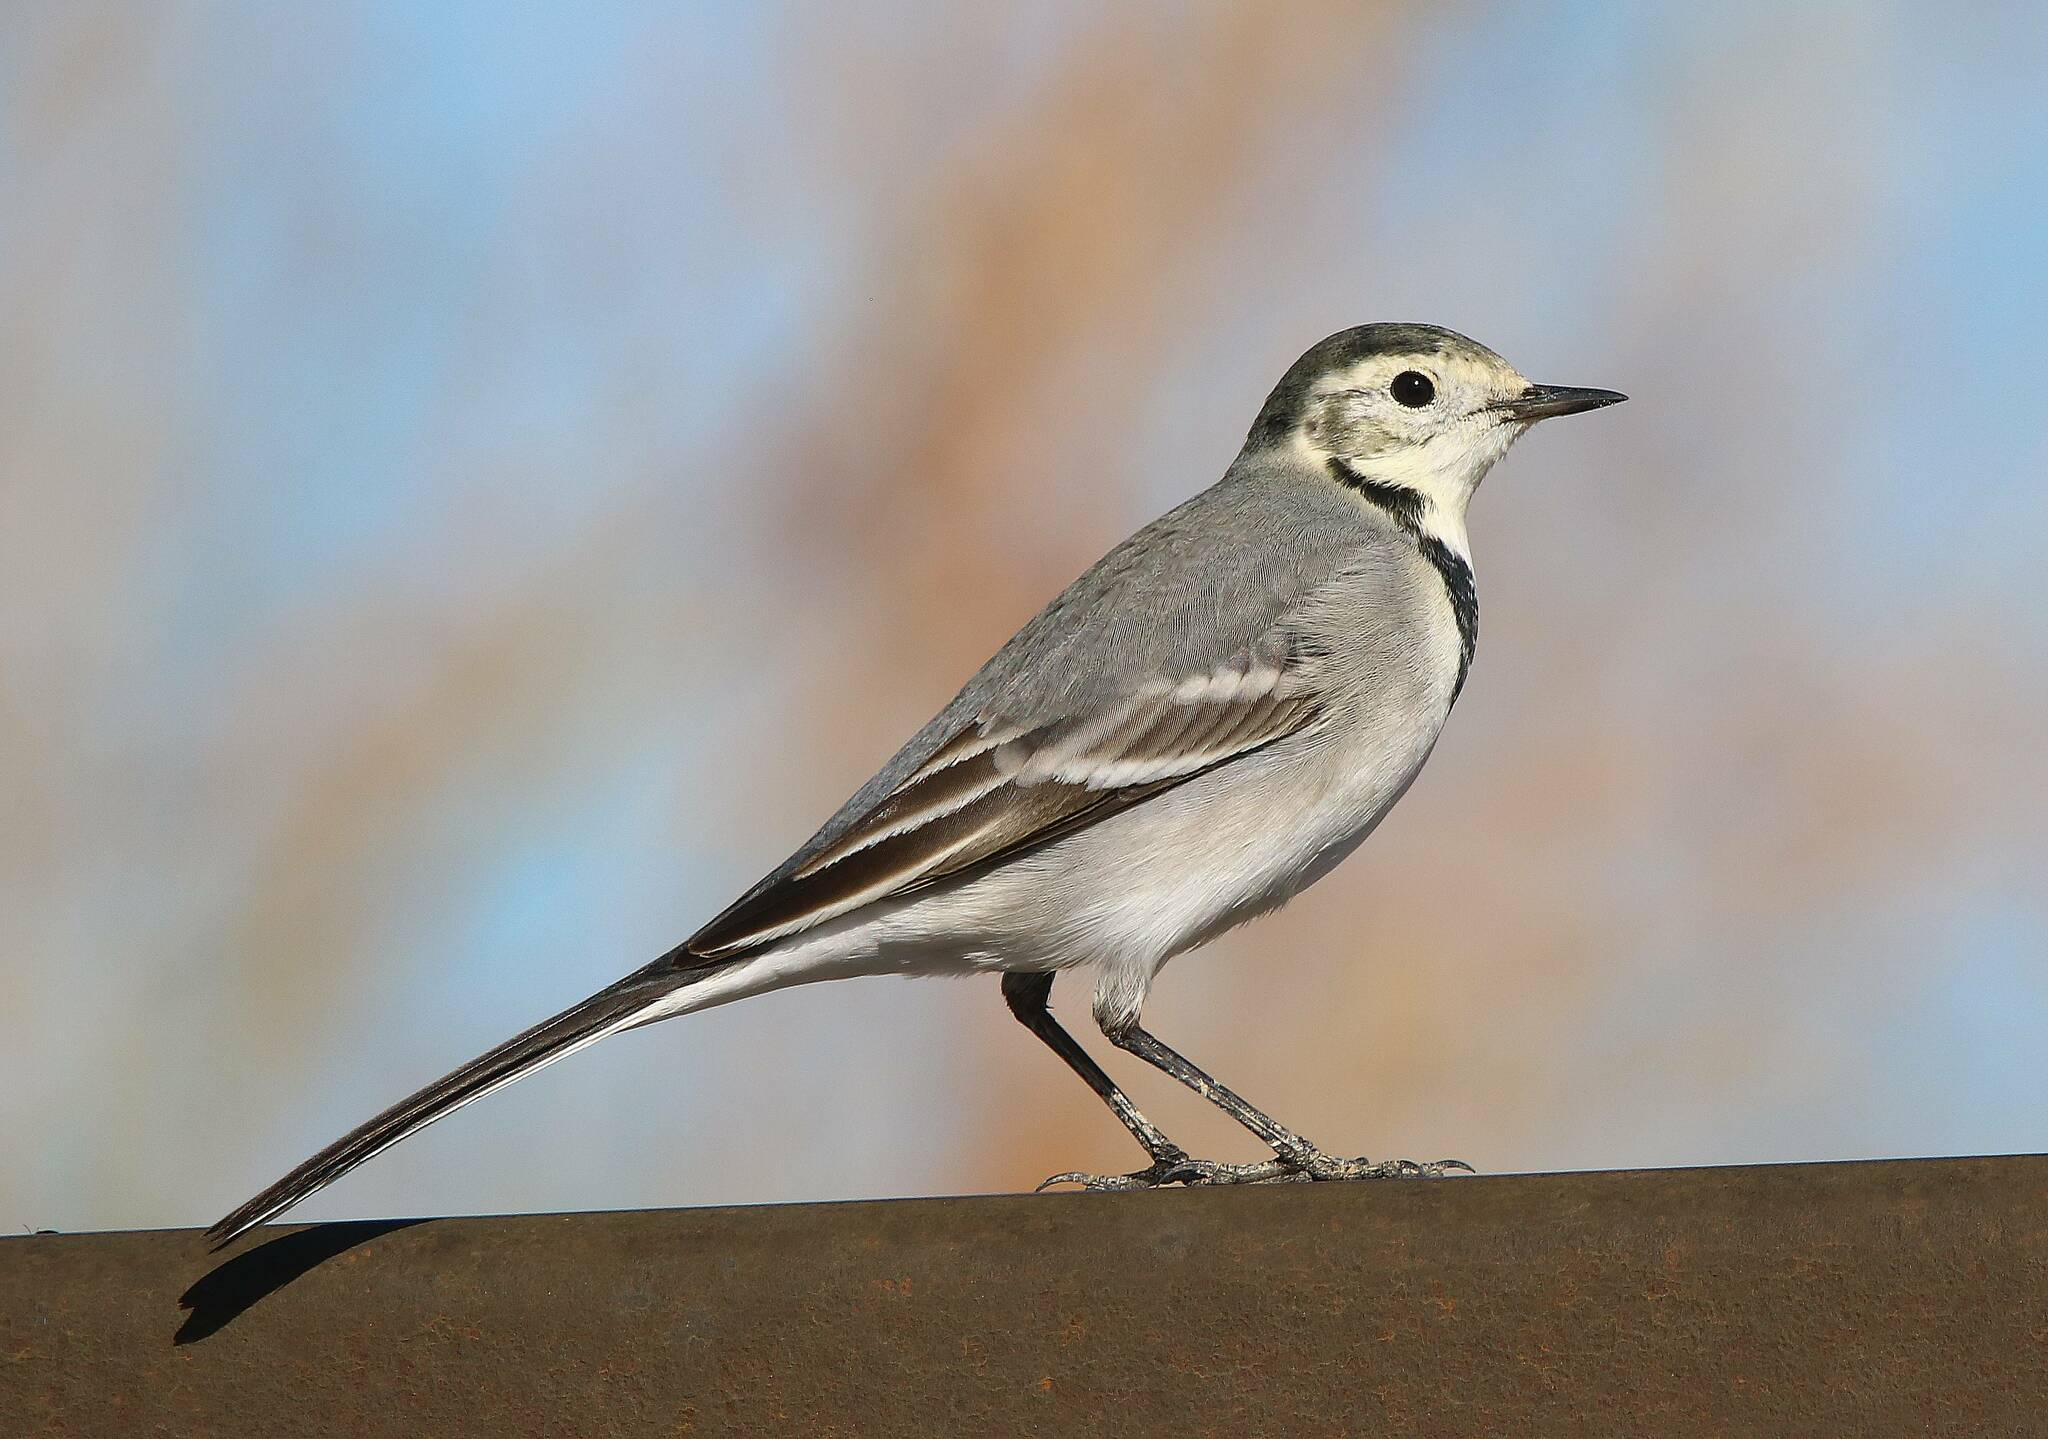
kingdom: Animalia
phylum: Chordata
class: Aves
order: Passeriformes
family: Motacillidae
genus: Motacilla
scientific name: Motacilla alba
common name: White wagtail
